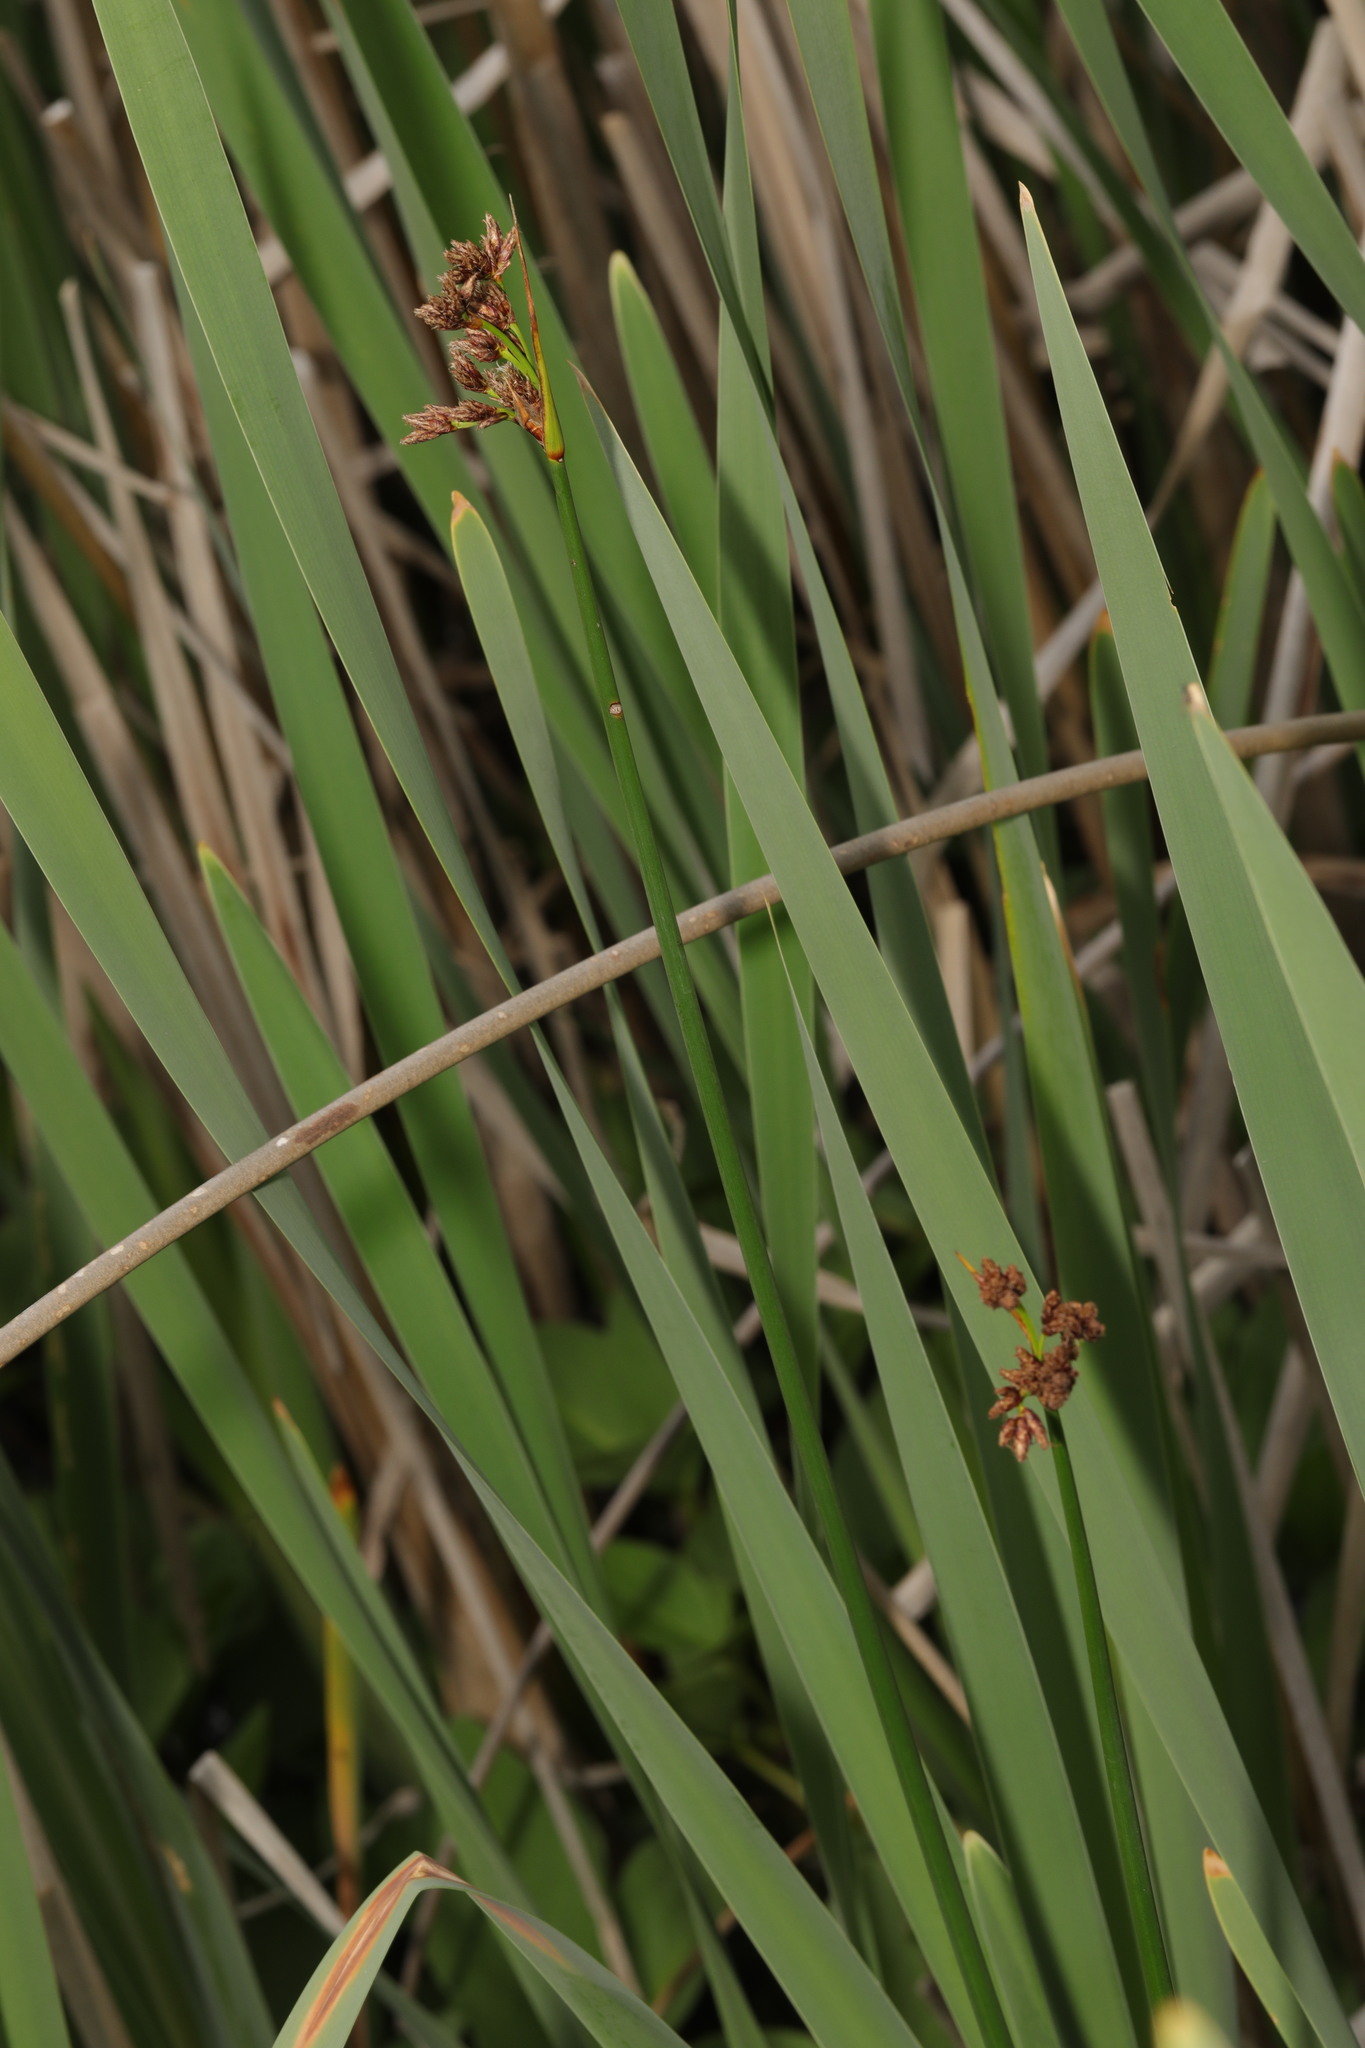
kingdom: Plantae
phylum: Tracheophyta
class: Liliopsida
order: Poales
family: Cyperaceae
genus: Schoenoplectus
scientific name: Schoenoplectus lacustris
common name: Common club-rush
